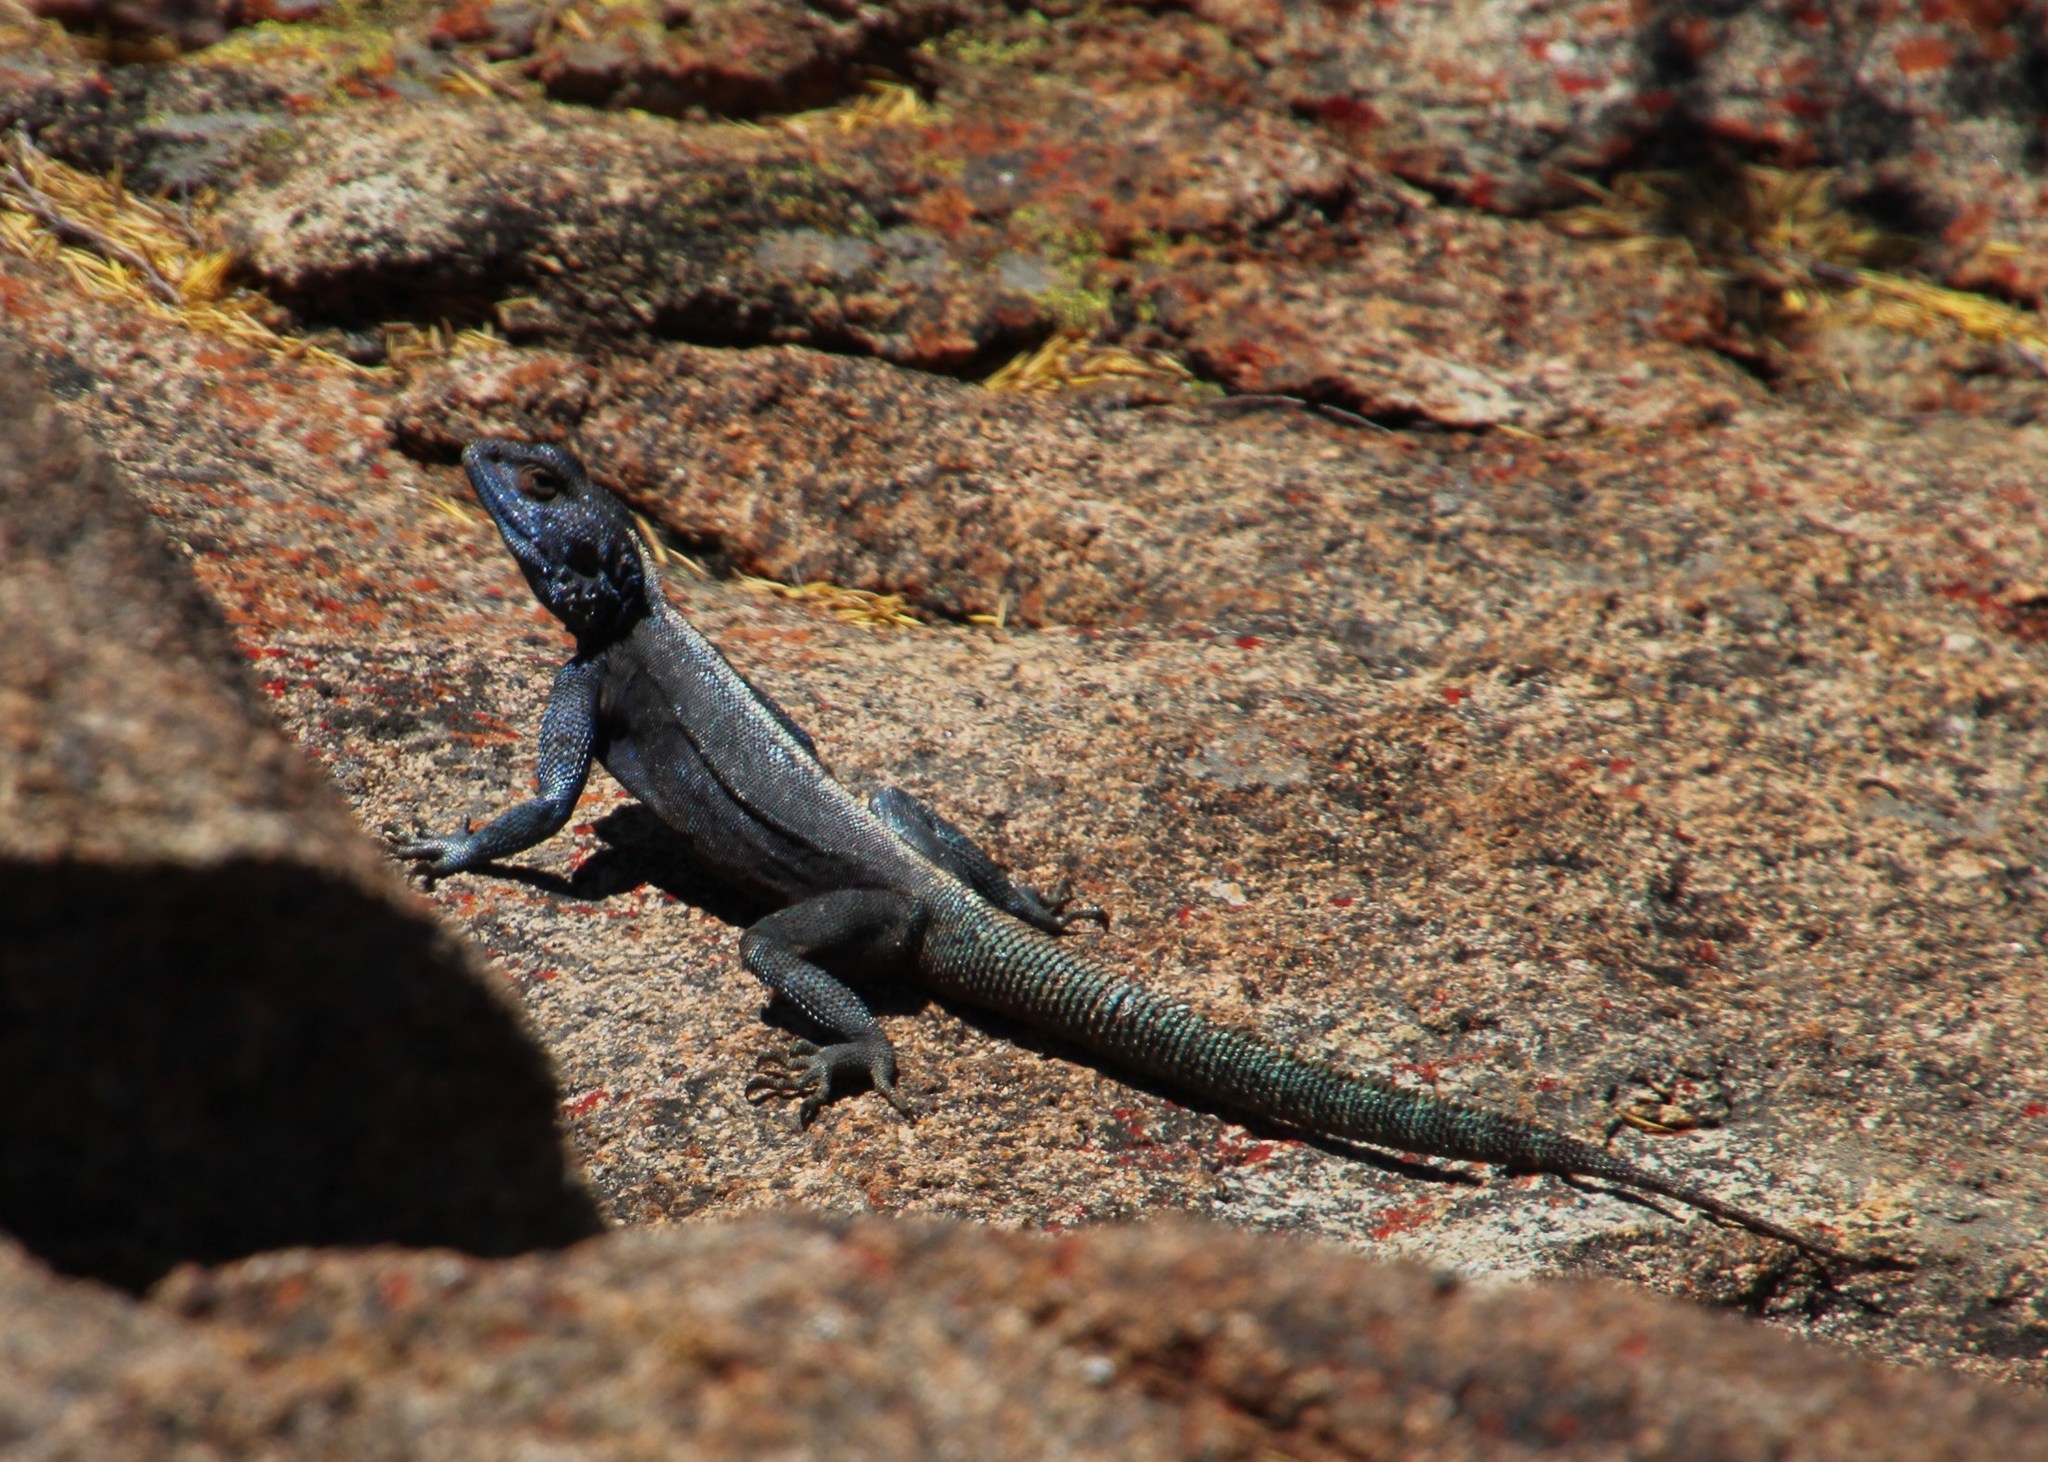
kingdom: Animalia
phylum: Chordata
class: Squamata
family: Agamidae
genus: Agama
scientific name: Agama atra
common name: Southern african rock agama
